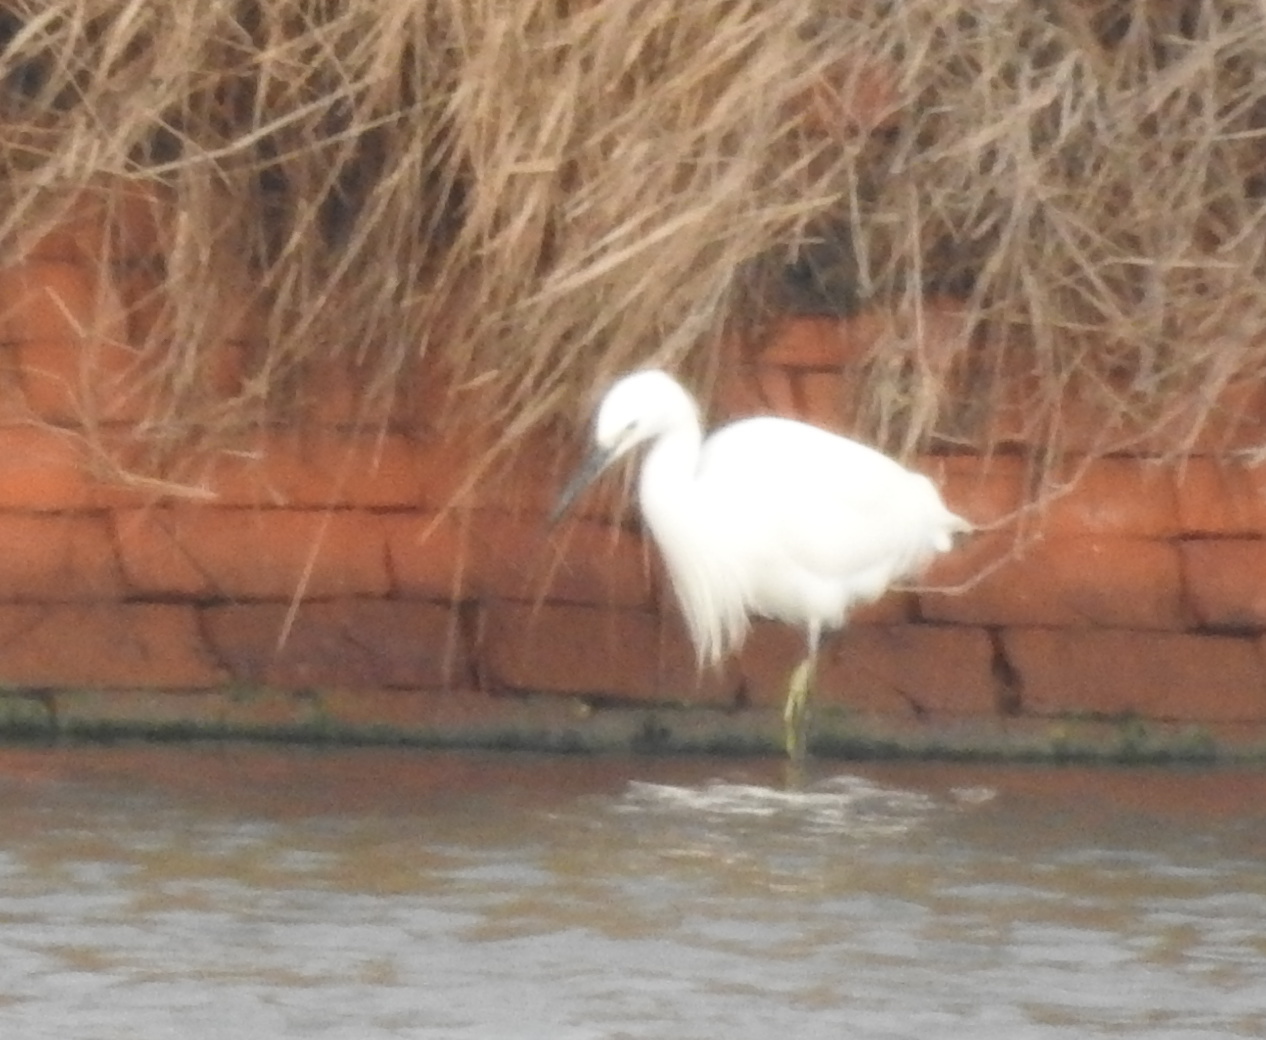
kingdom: Animalia
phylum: Chordata
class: Aves
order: Pelecaniformes
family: Ardeidae
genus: Egretta
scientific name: Egretta garzetta
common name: Little egret
